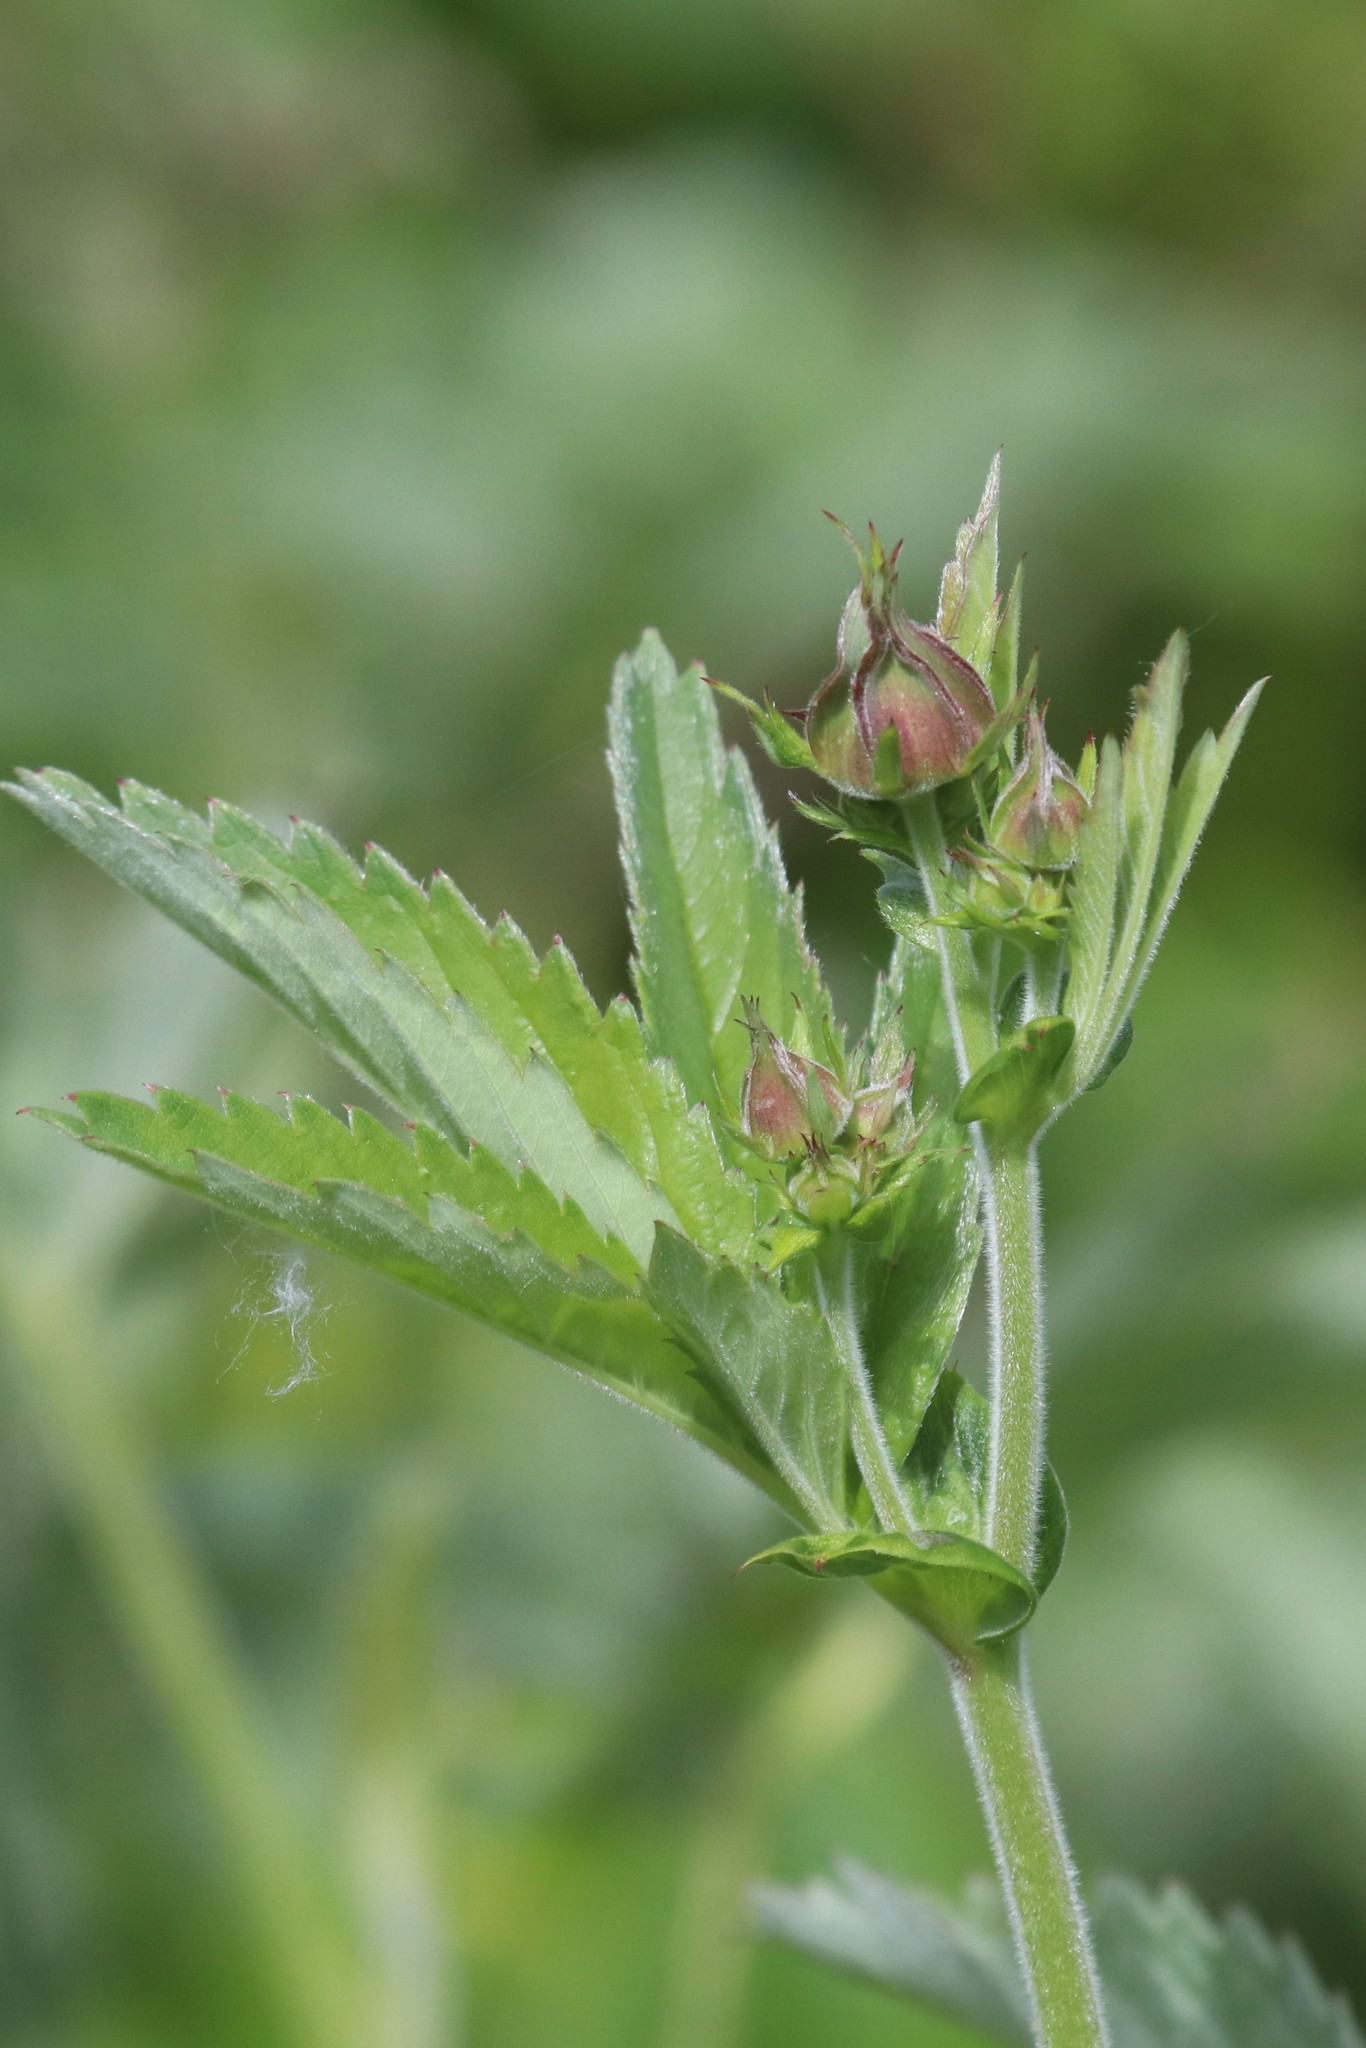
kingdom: Plantae
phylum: Tracheophyta
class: Magnoliopsida
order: Rosales
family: Rosaceae
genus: Comarum
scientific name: Comarum palustre
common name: Marsh cinquefoil
